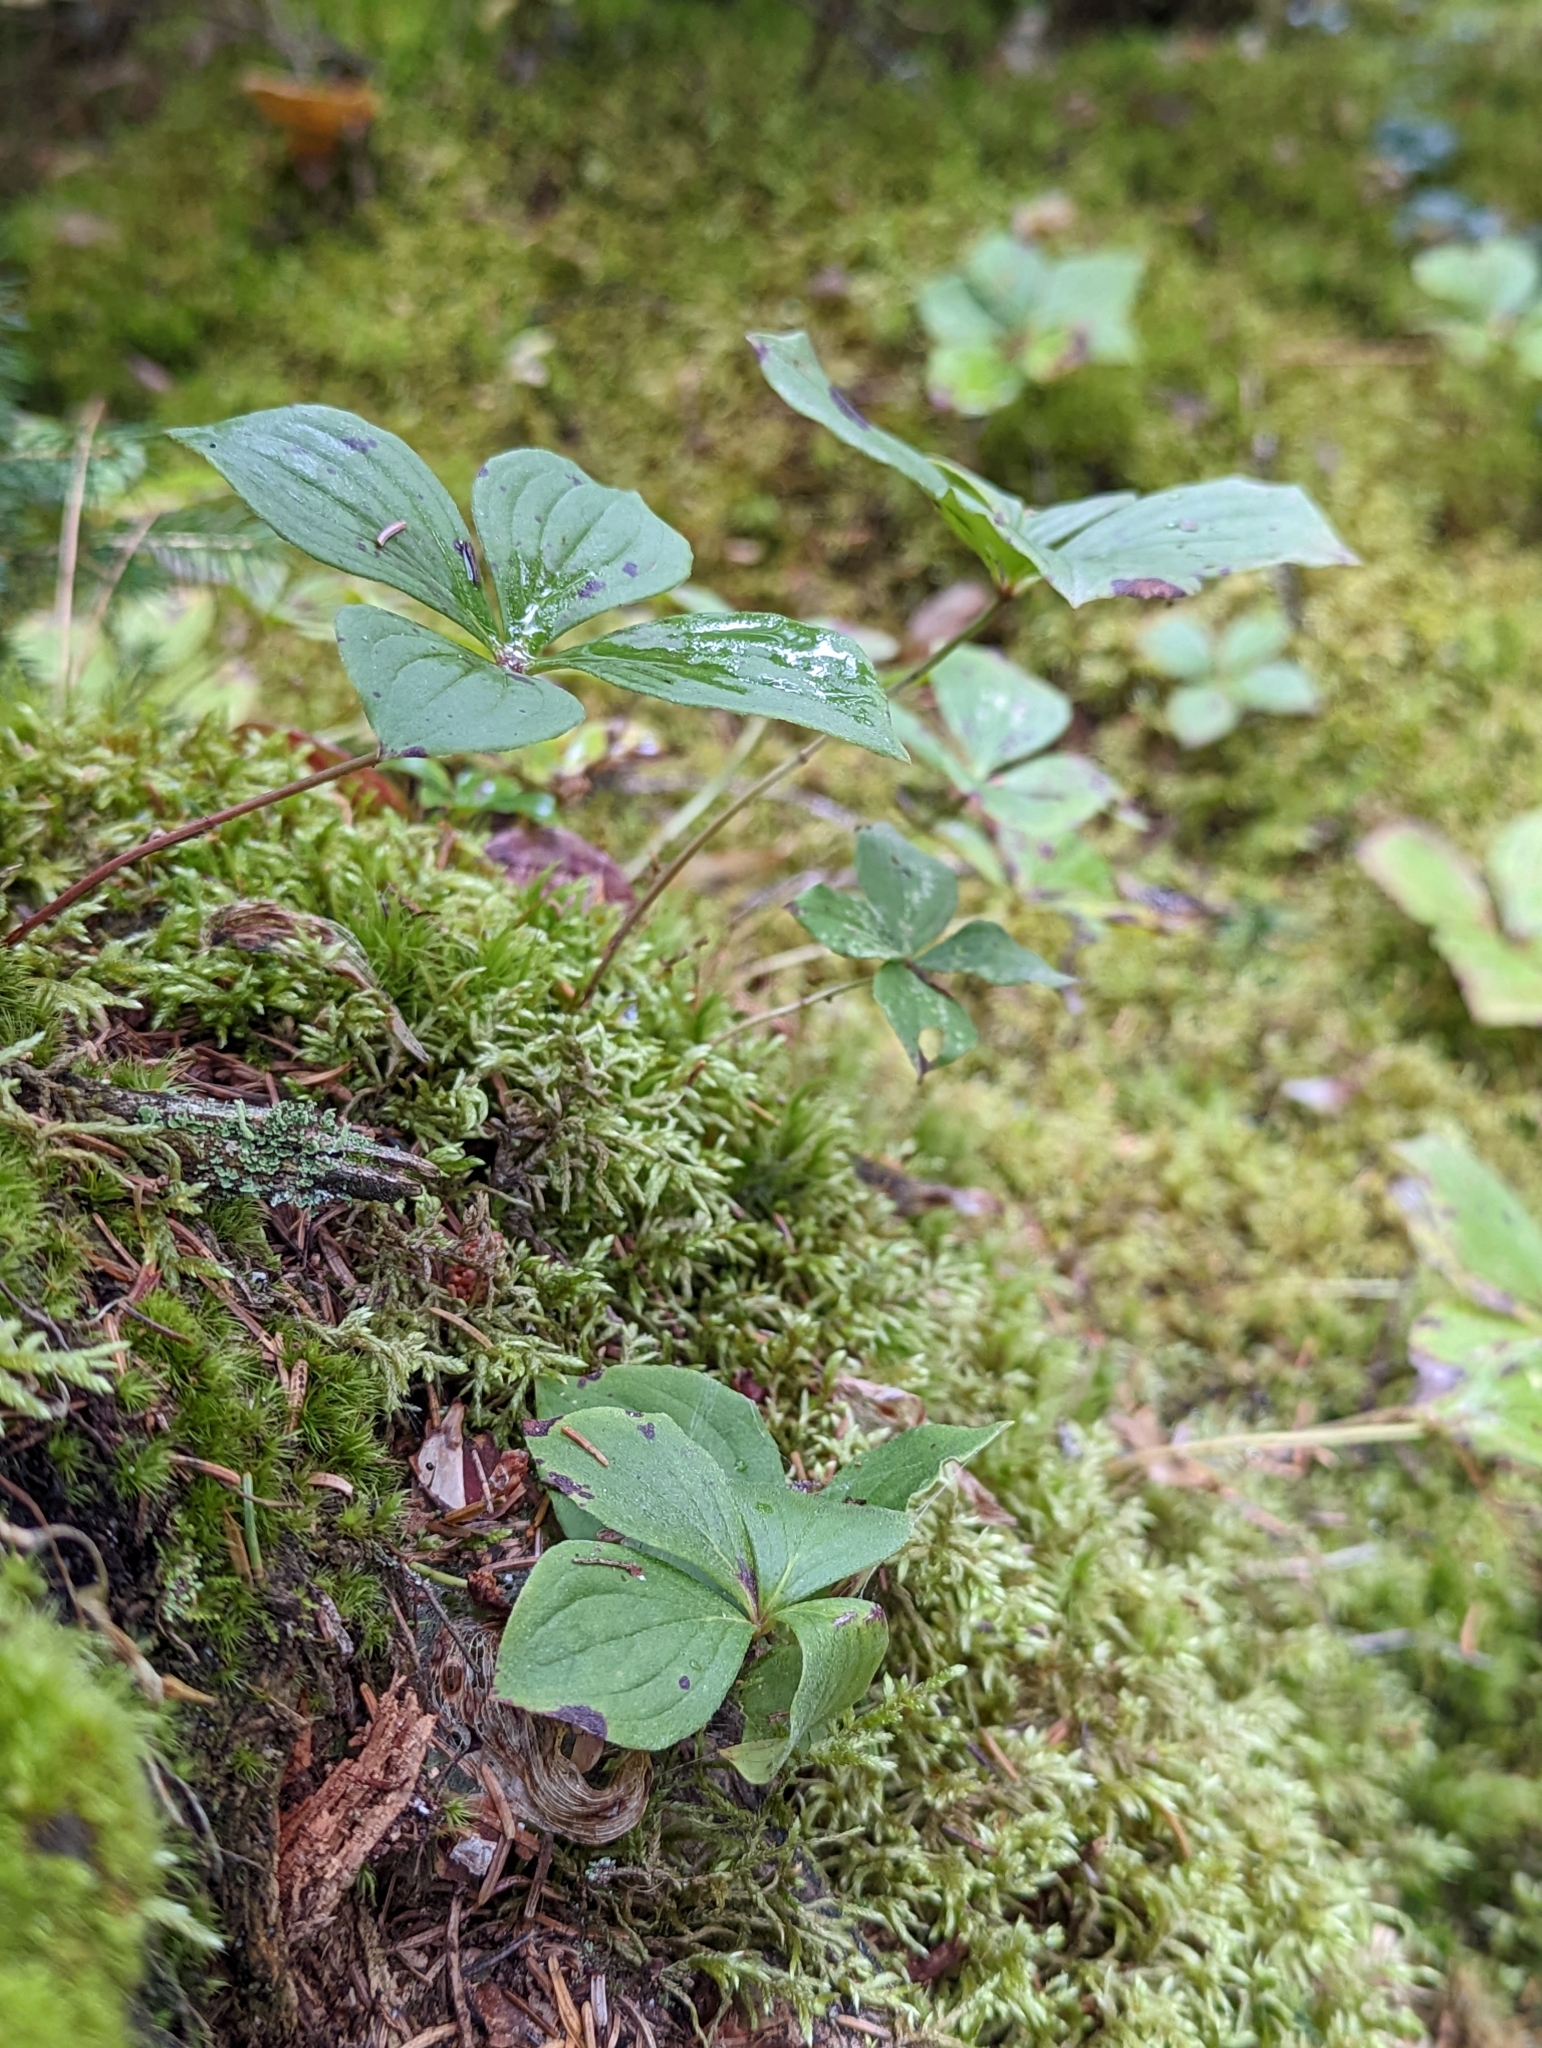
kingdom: Plantae
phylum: Tracheophyta
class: Magnoliopsida
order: Cornales
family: Cornaceae
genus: Cornus
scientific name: Cornus canadensis
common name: Creeping dogwood
